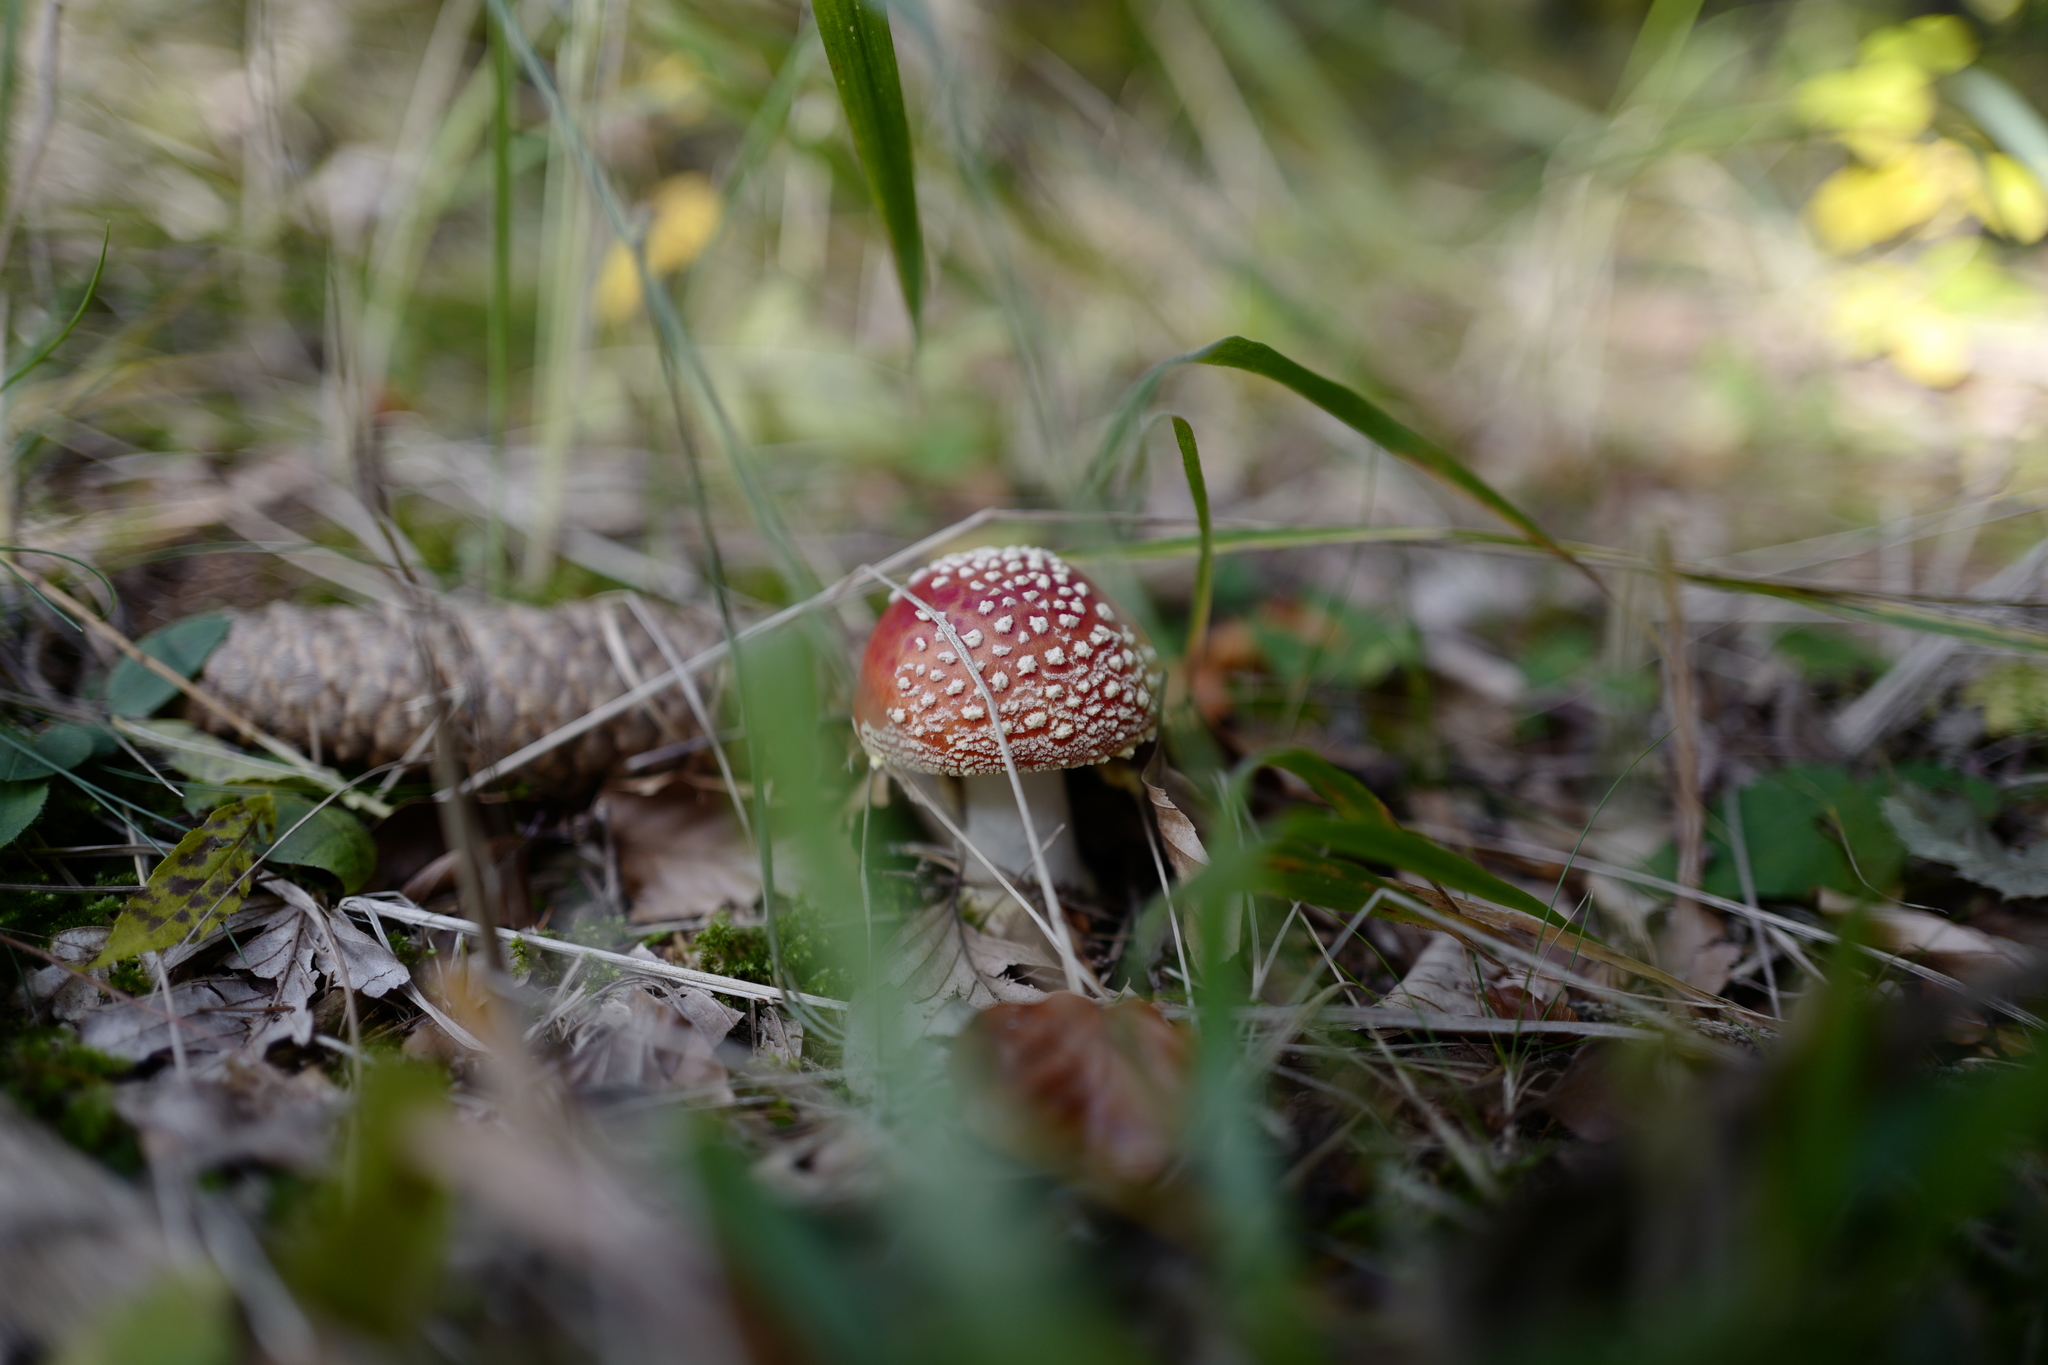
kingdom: Fungi
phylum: Basidiomycota
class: Agaricomycetes
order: Agaricales
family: Amanitaceae
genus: Amanita
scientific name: Amanita muscaria
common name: Fly agaric
